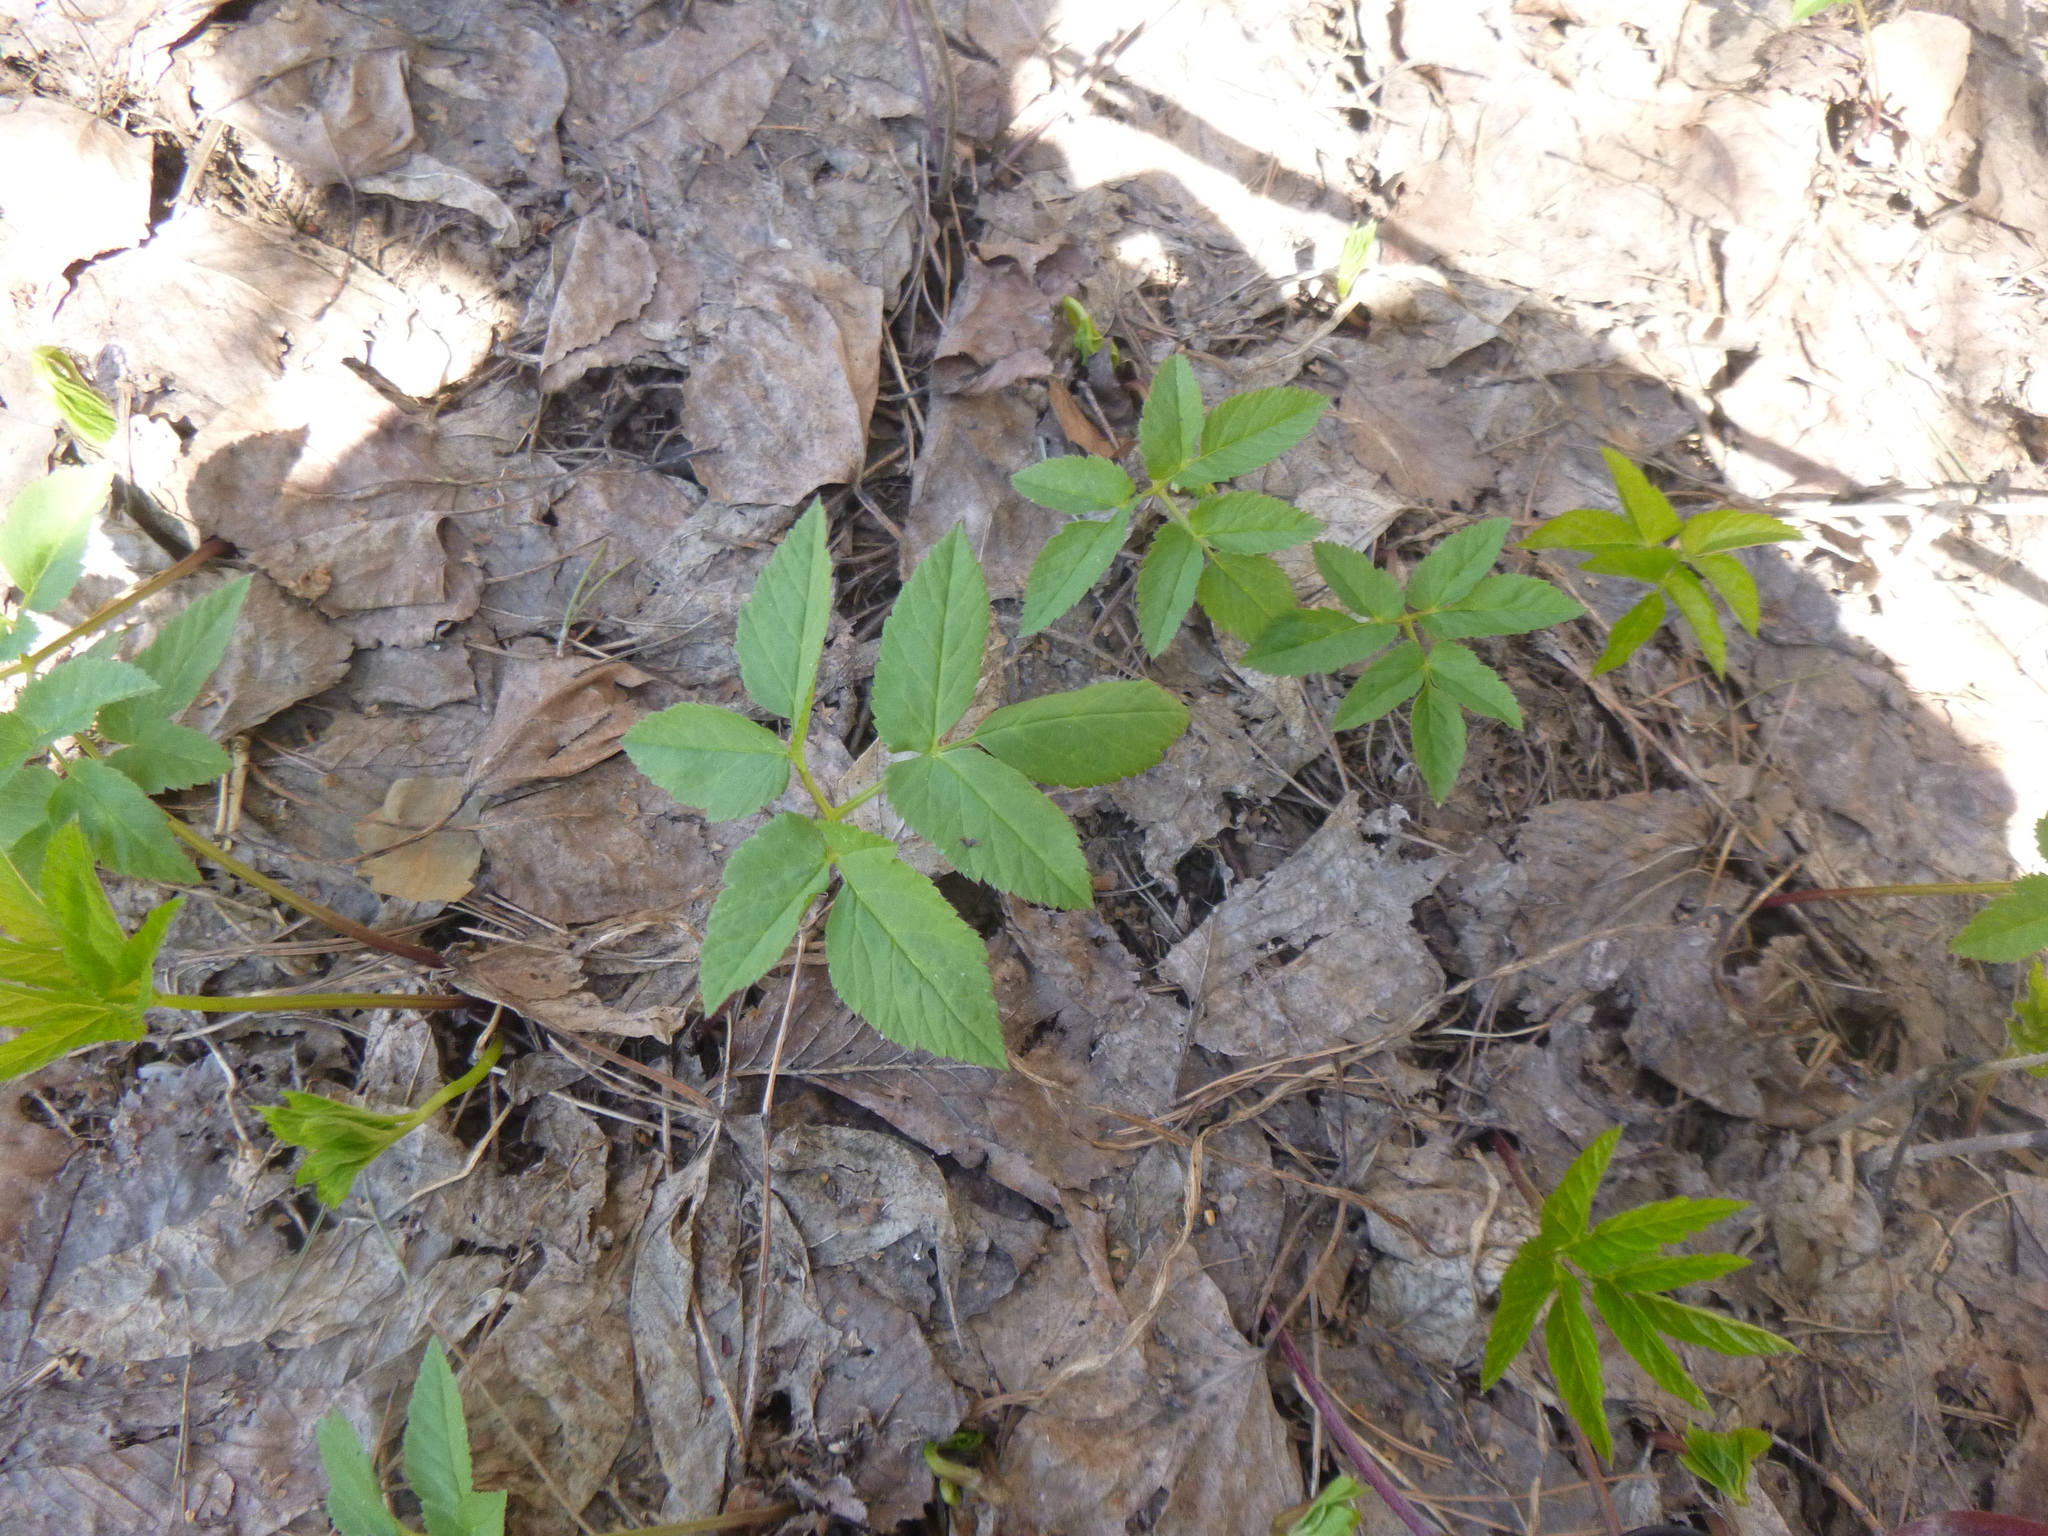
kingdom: Plantae
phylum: Tracheophyta
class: Magnoliopsida
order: Apiales
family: Apiaceae
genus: Aegopodium
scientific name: Aegopodium podagraria
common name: Ground-elder
